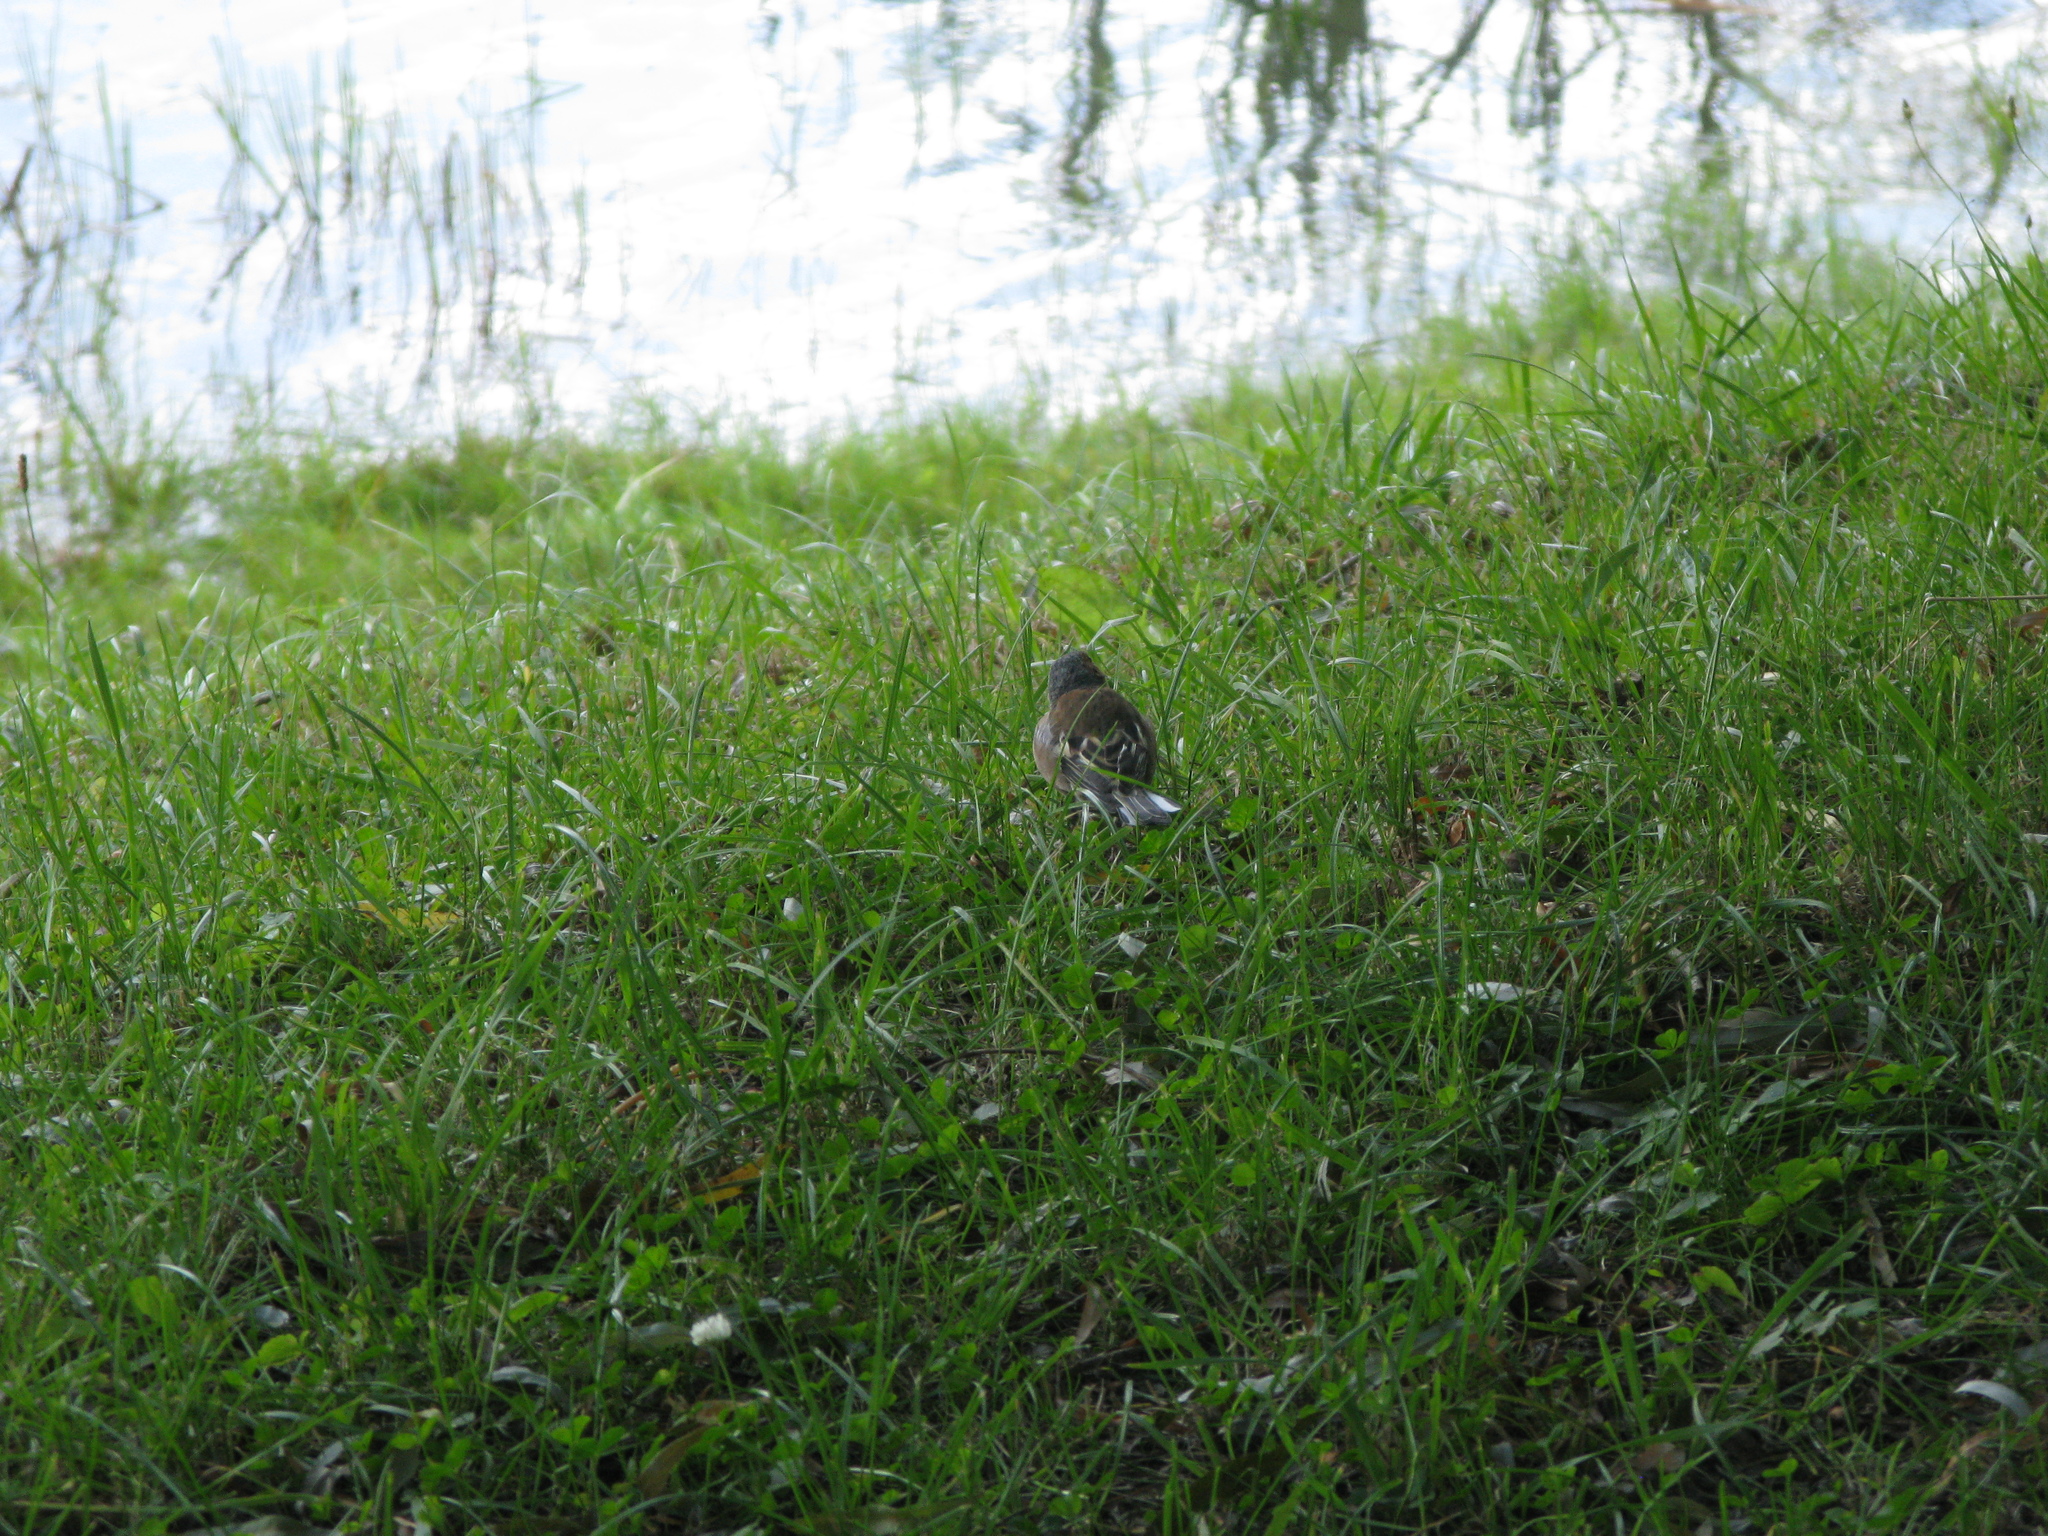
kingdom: Animalia
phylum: Chordata
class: Aves
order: Passeriformes
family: Fringillidae
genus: Fringilla
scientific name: Fringilla coelebs
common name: Common chaffinch
